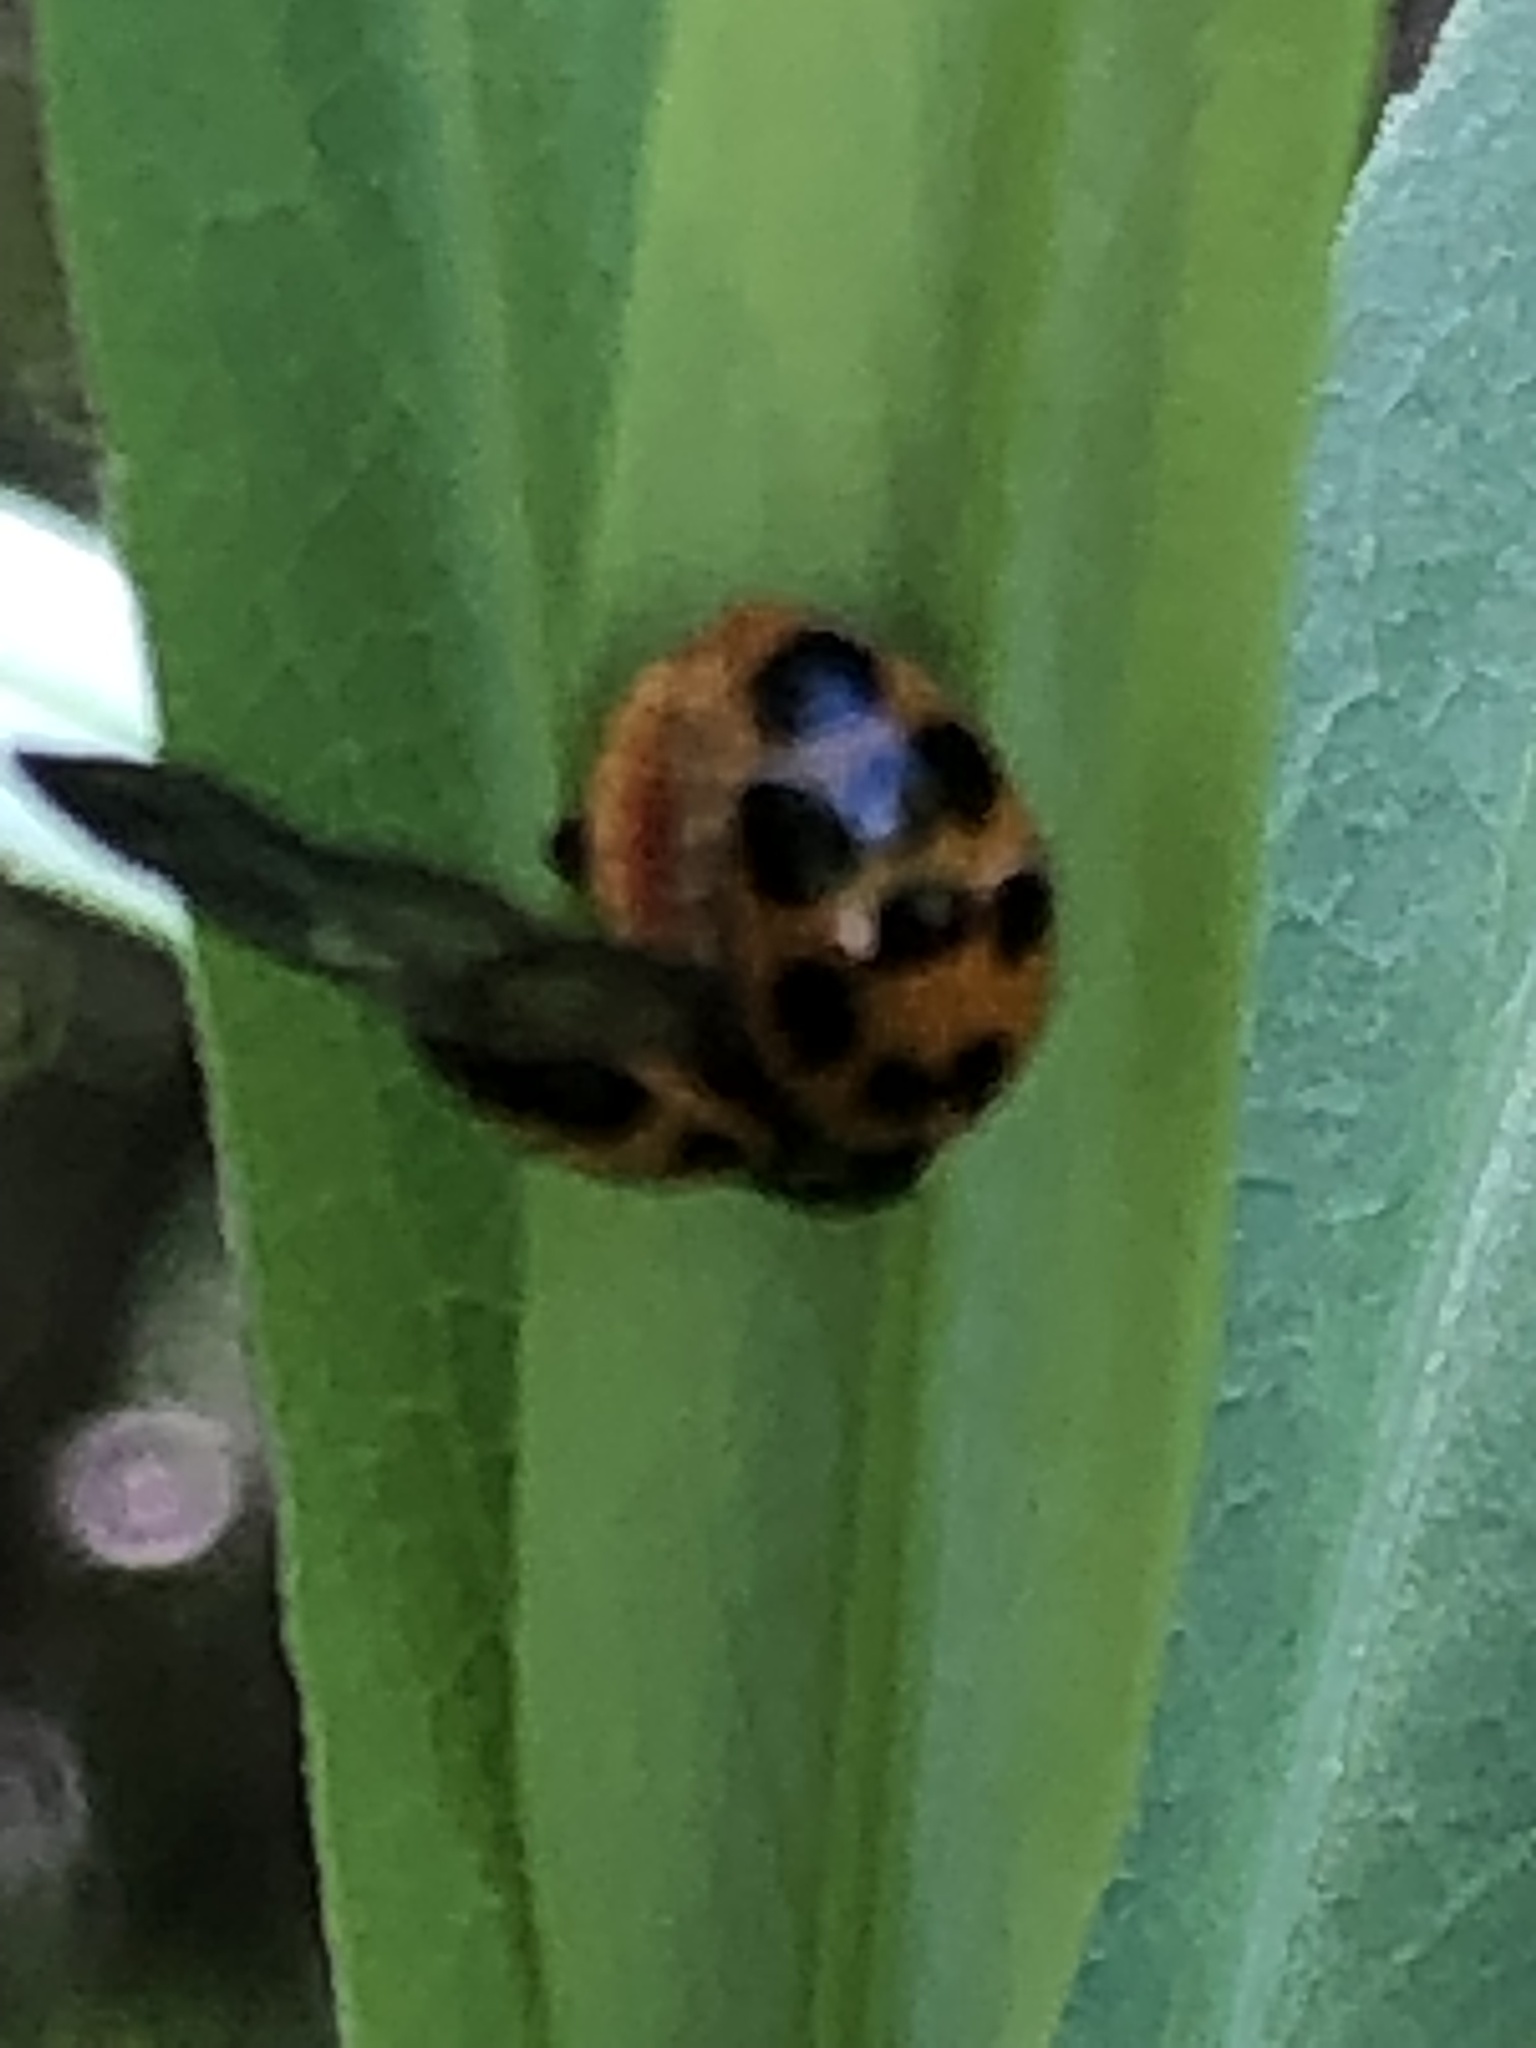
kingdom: Animalia
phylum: Arthropoda
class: Insecta
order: Coleoptera
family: Coccinellidae
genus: Harmonia
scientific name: Harmonia axyridis
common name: Harlequin ladybird
